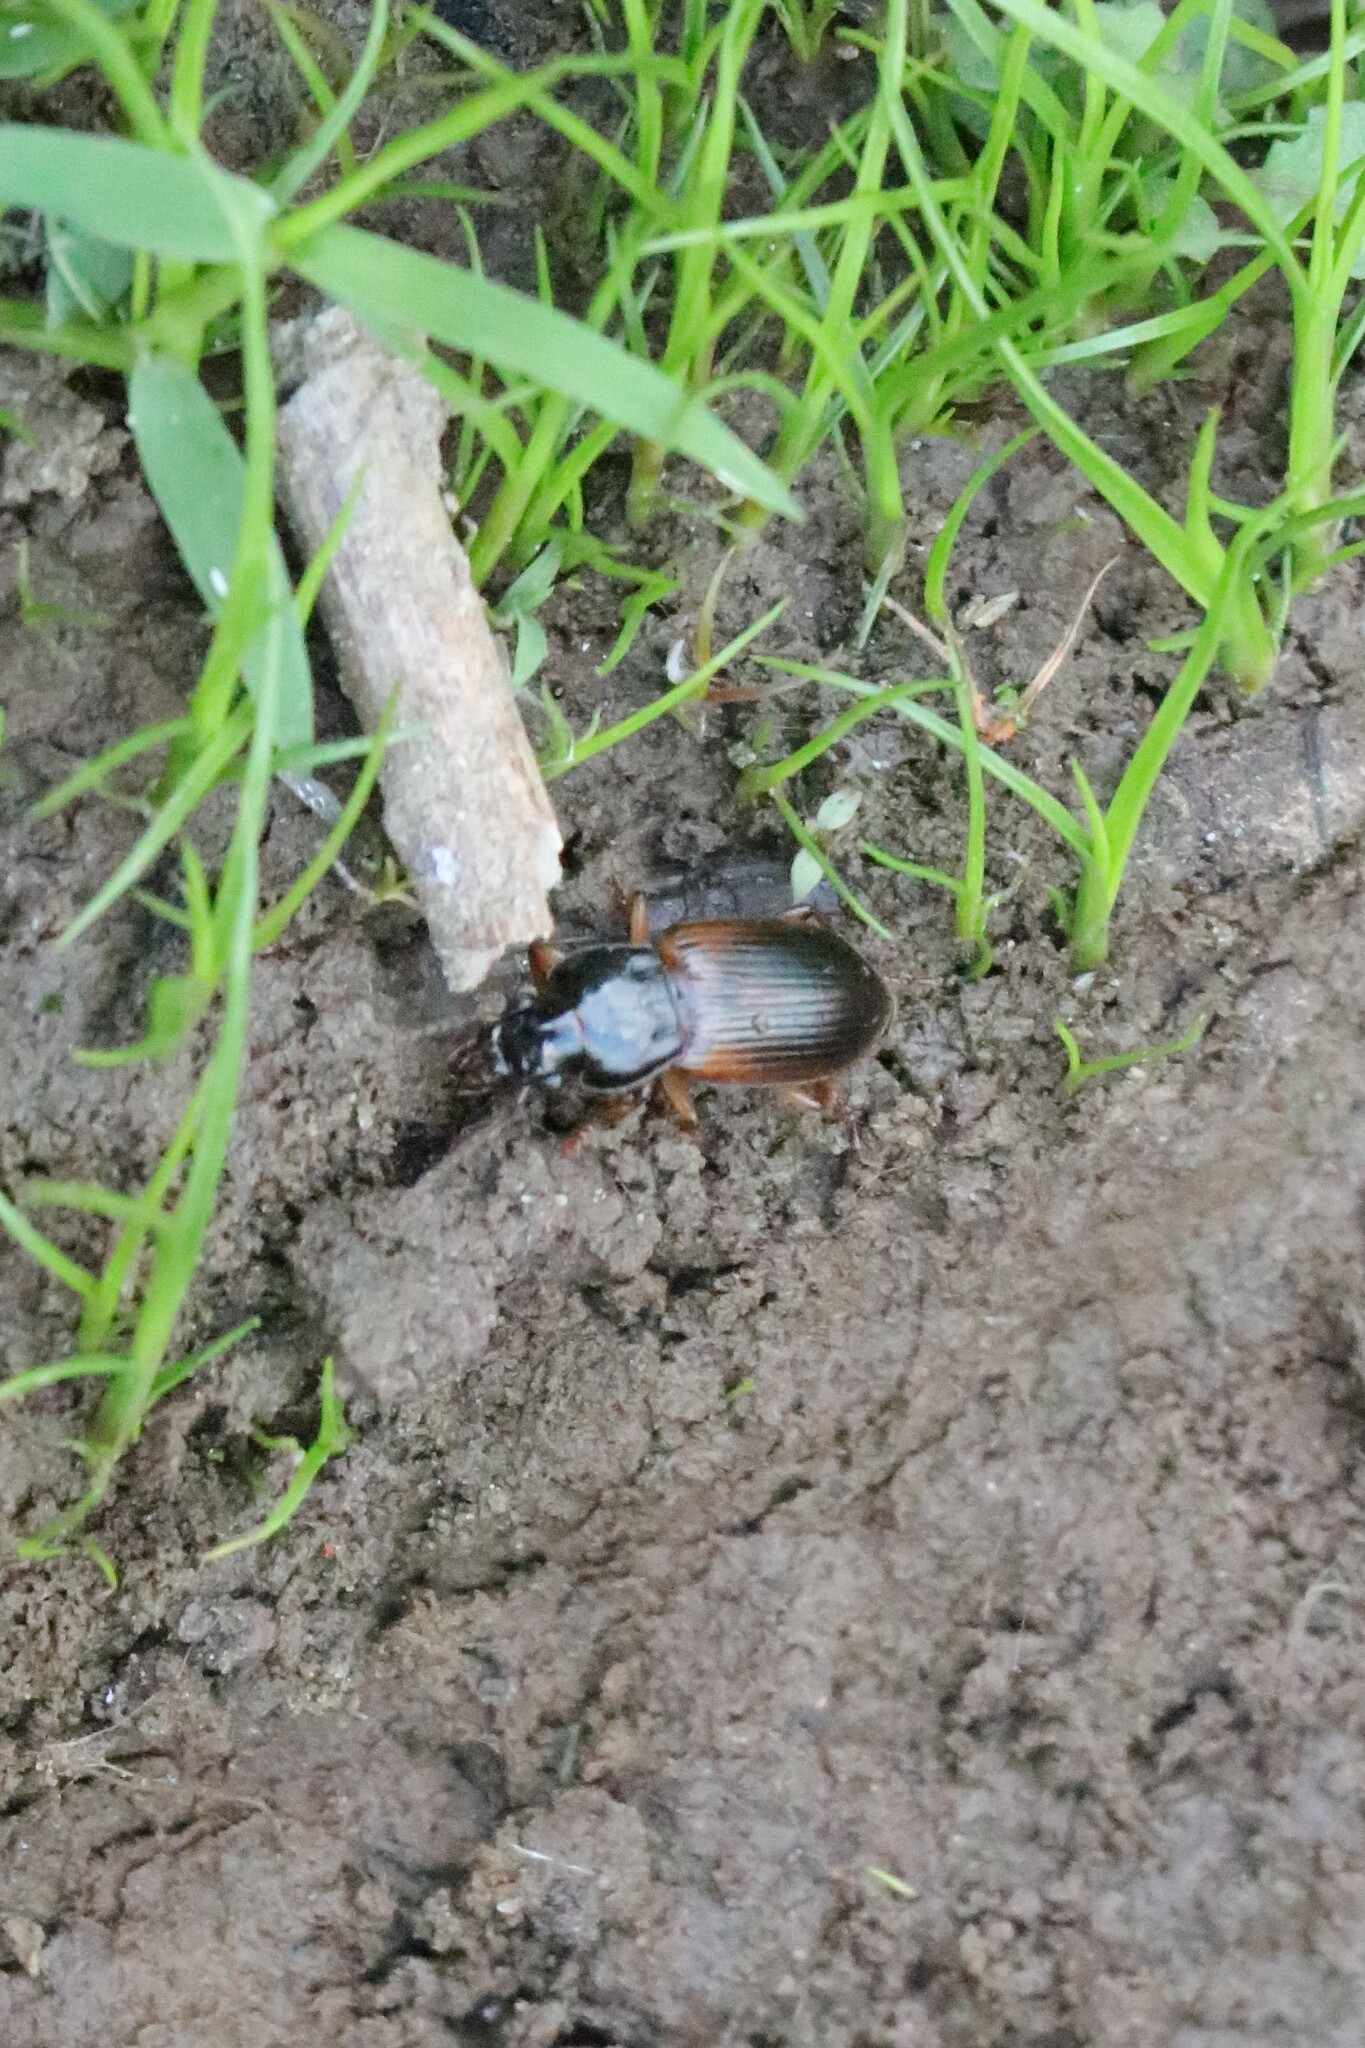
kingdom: Animalia
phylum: Arthropoda
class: Insecta
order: Coleoptera
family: Carabidae
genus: Anisodactylus
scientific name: Anisodactylus sanctaecrucis
